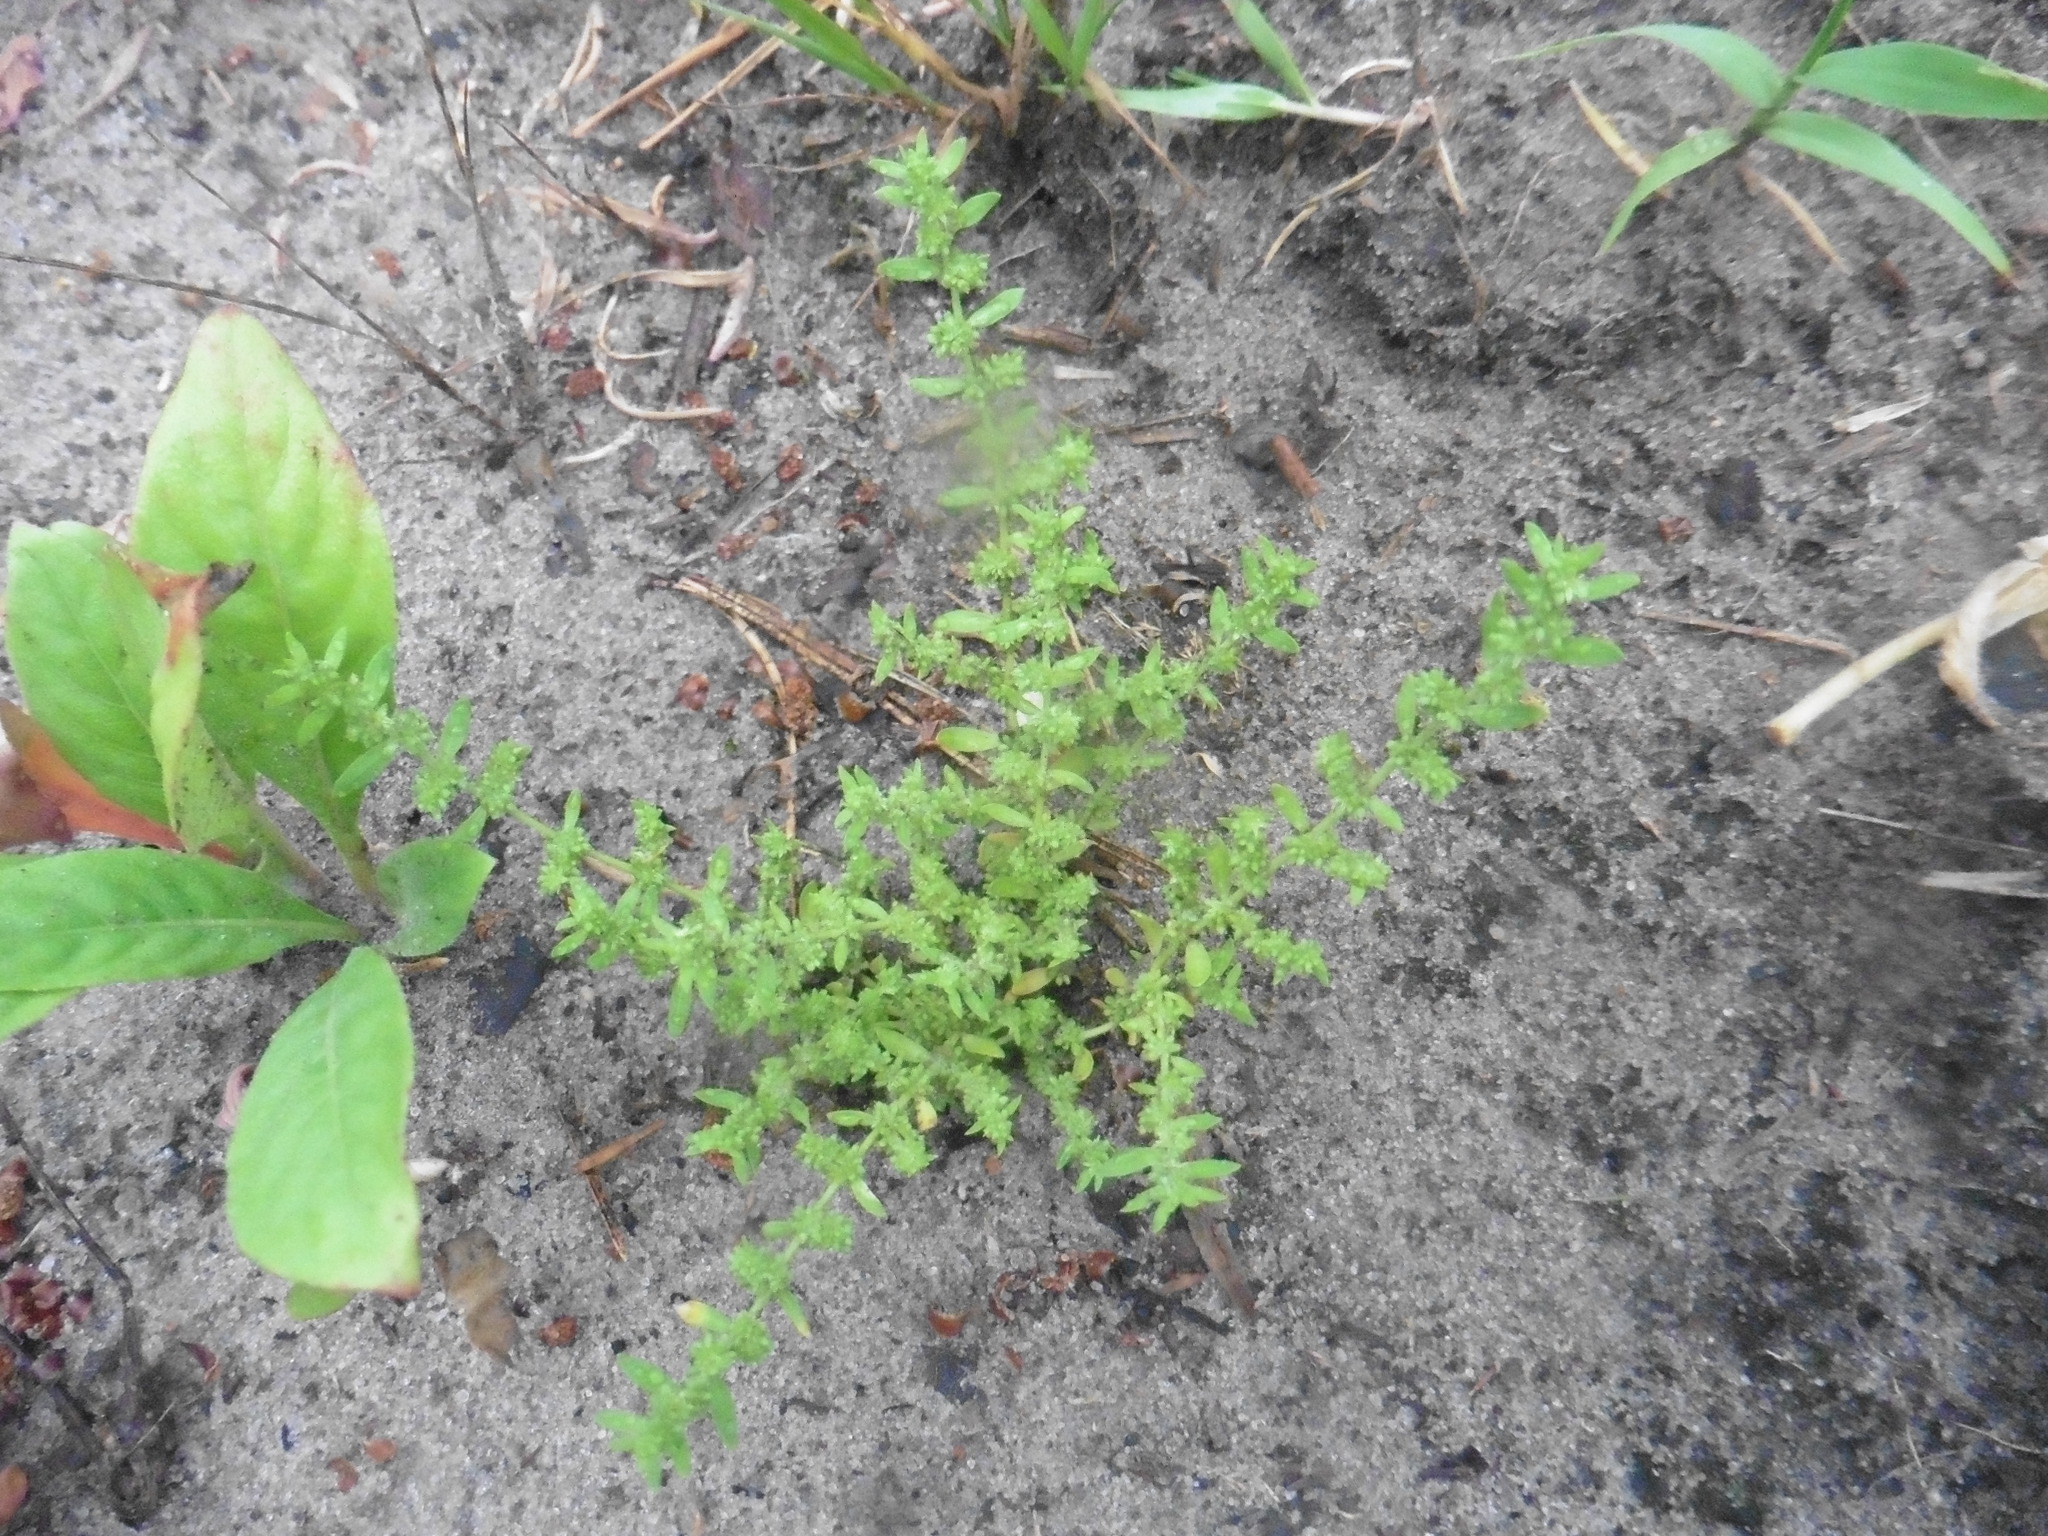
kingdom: Plantae
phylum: Tracheophyta
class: Magnoliopsida
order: Caryophyllales
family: Caryophyllaceae
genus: Herniaria
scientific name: Herniaria glabra
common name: Smooth rupturewort
